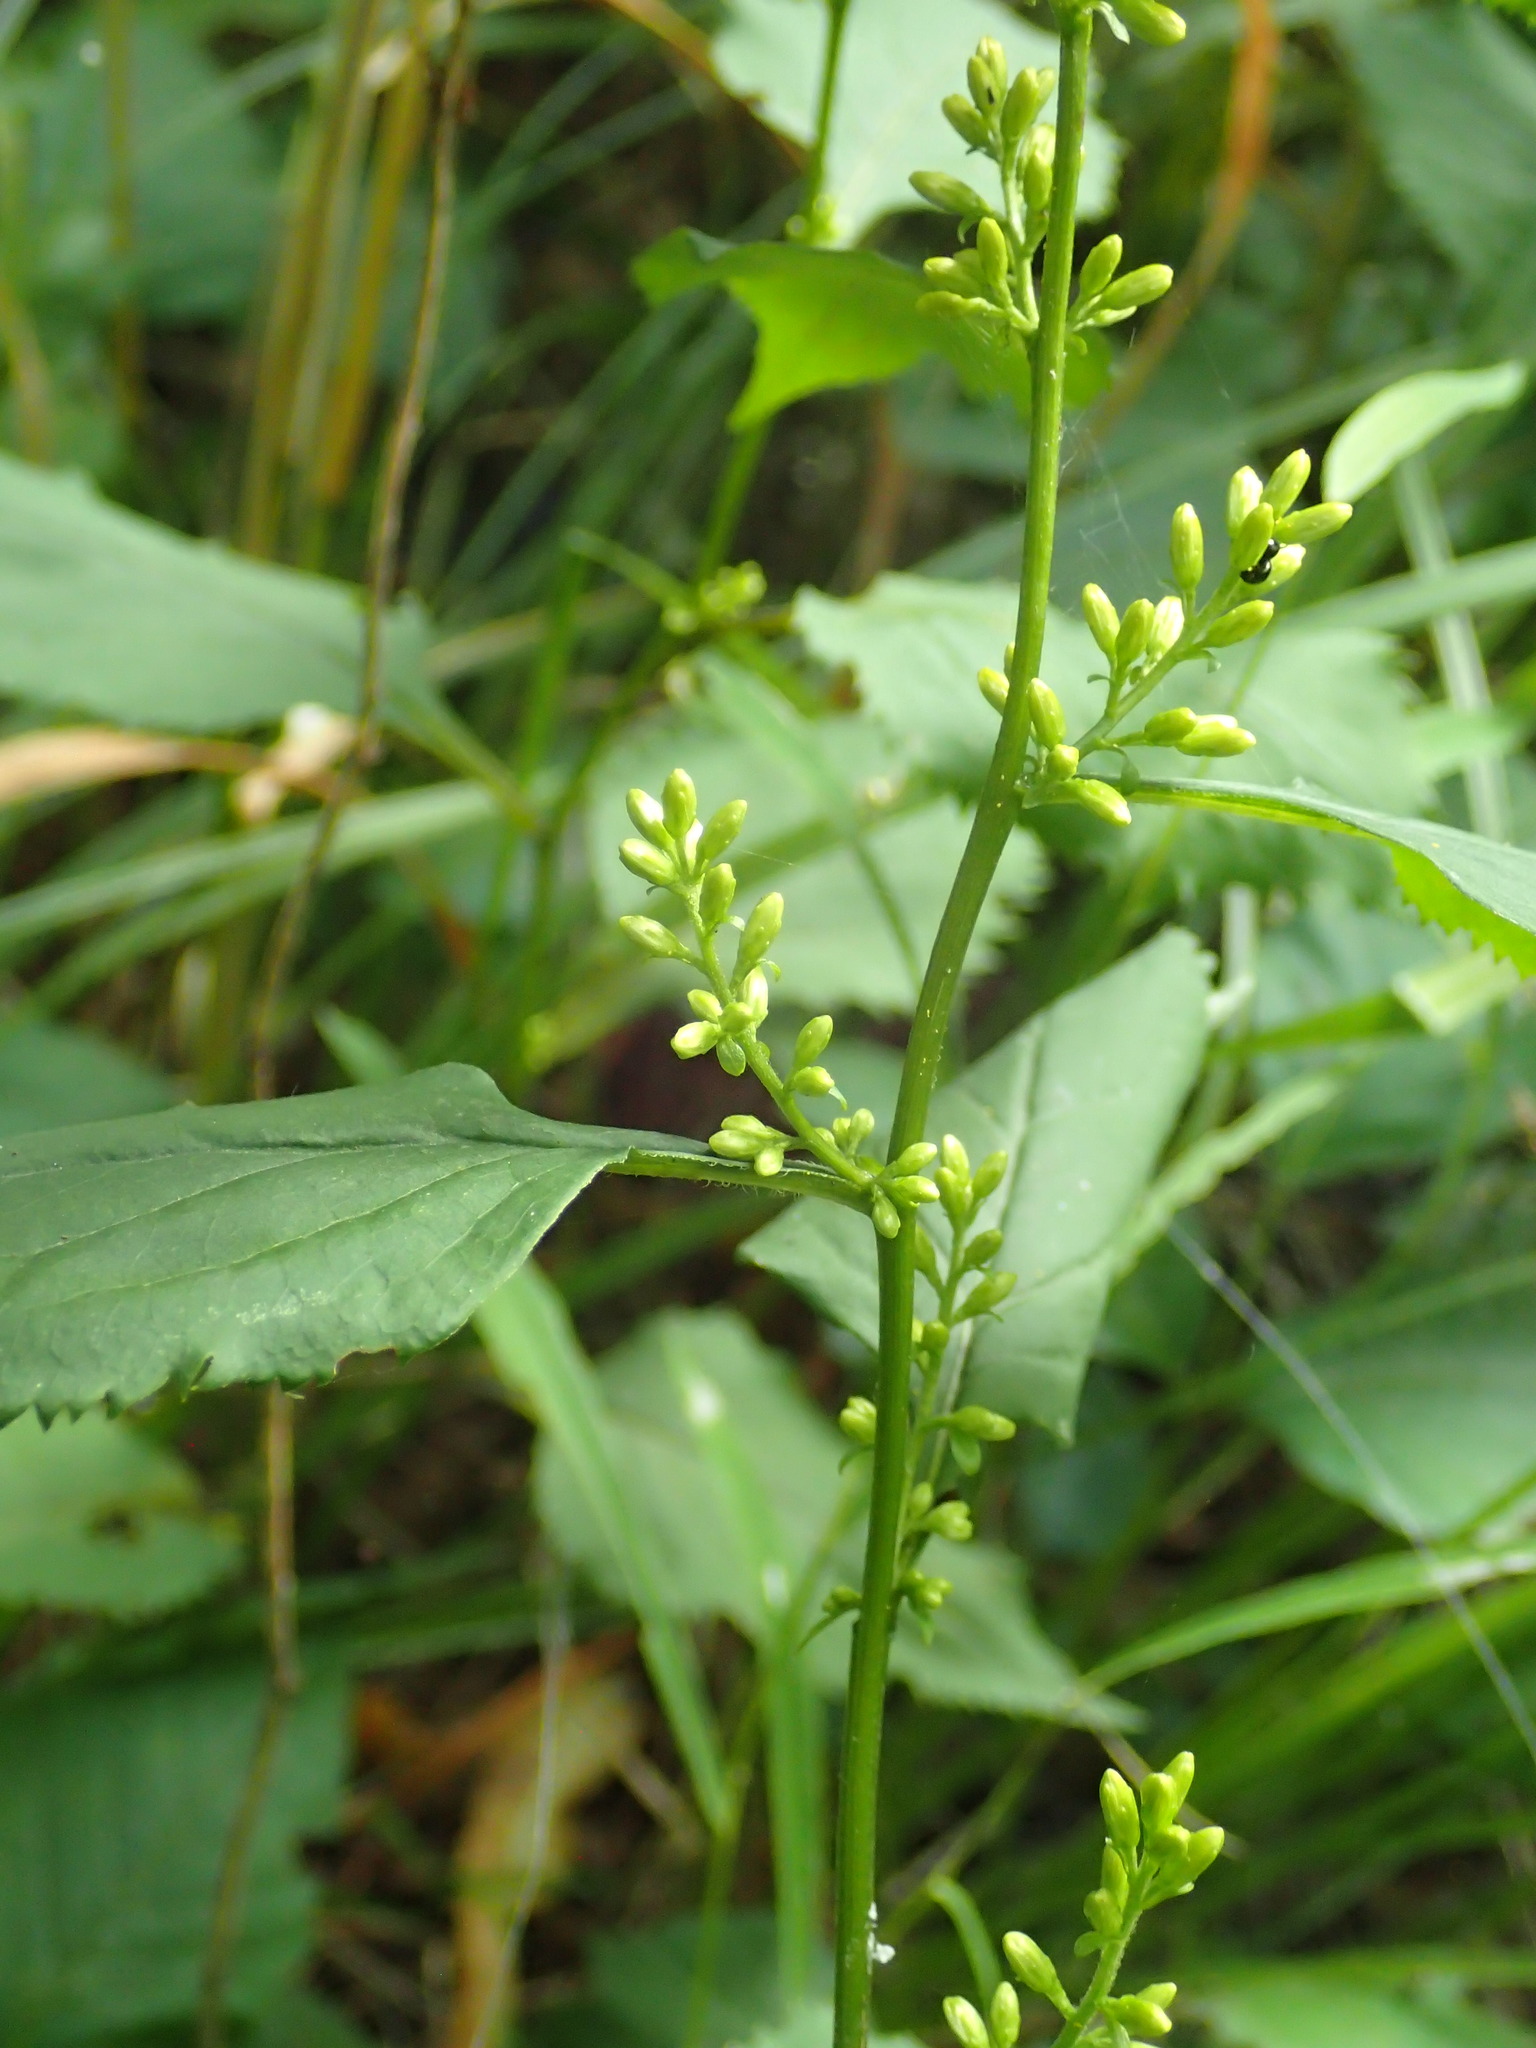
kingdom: Plantae
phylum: Tracheophyta
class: Magnoliopsida
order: Asterales
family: Asteraceae
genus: Solidago
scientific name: Solidago flexicaulis
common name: Zig-zag goldenrod
